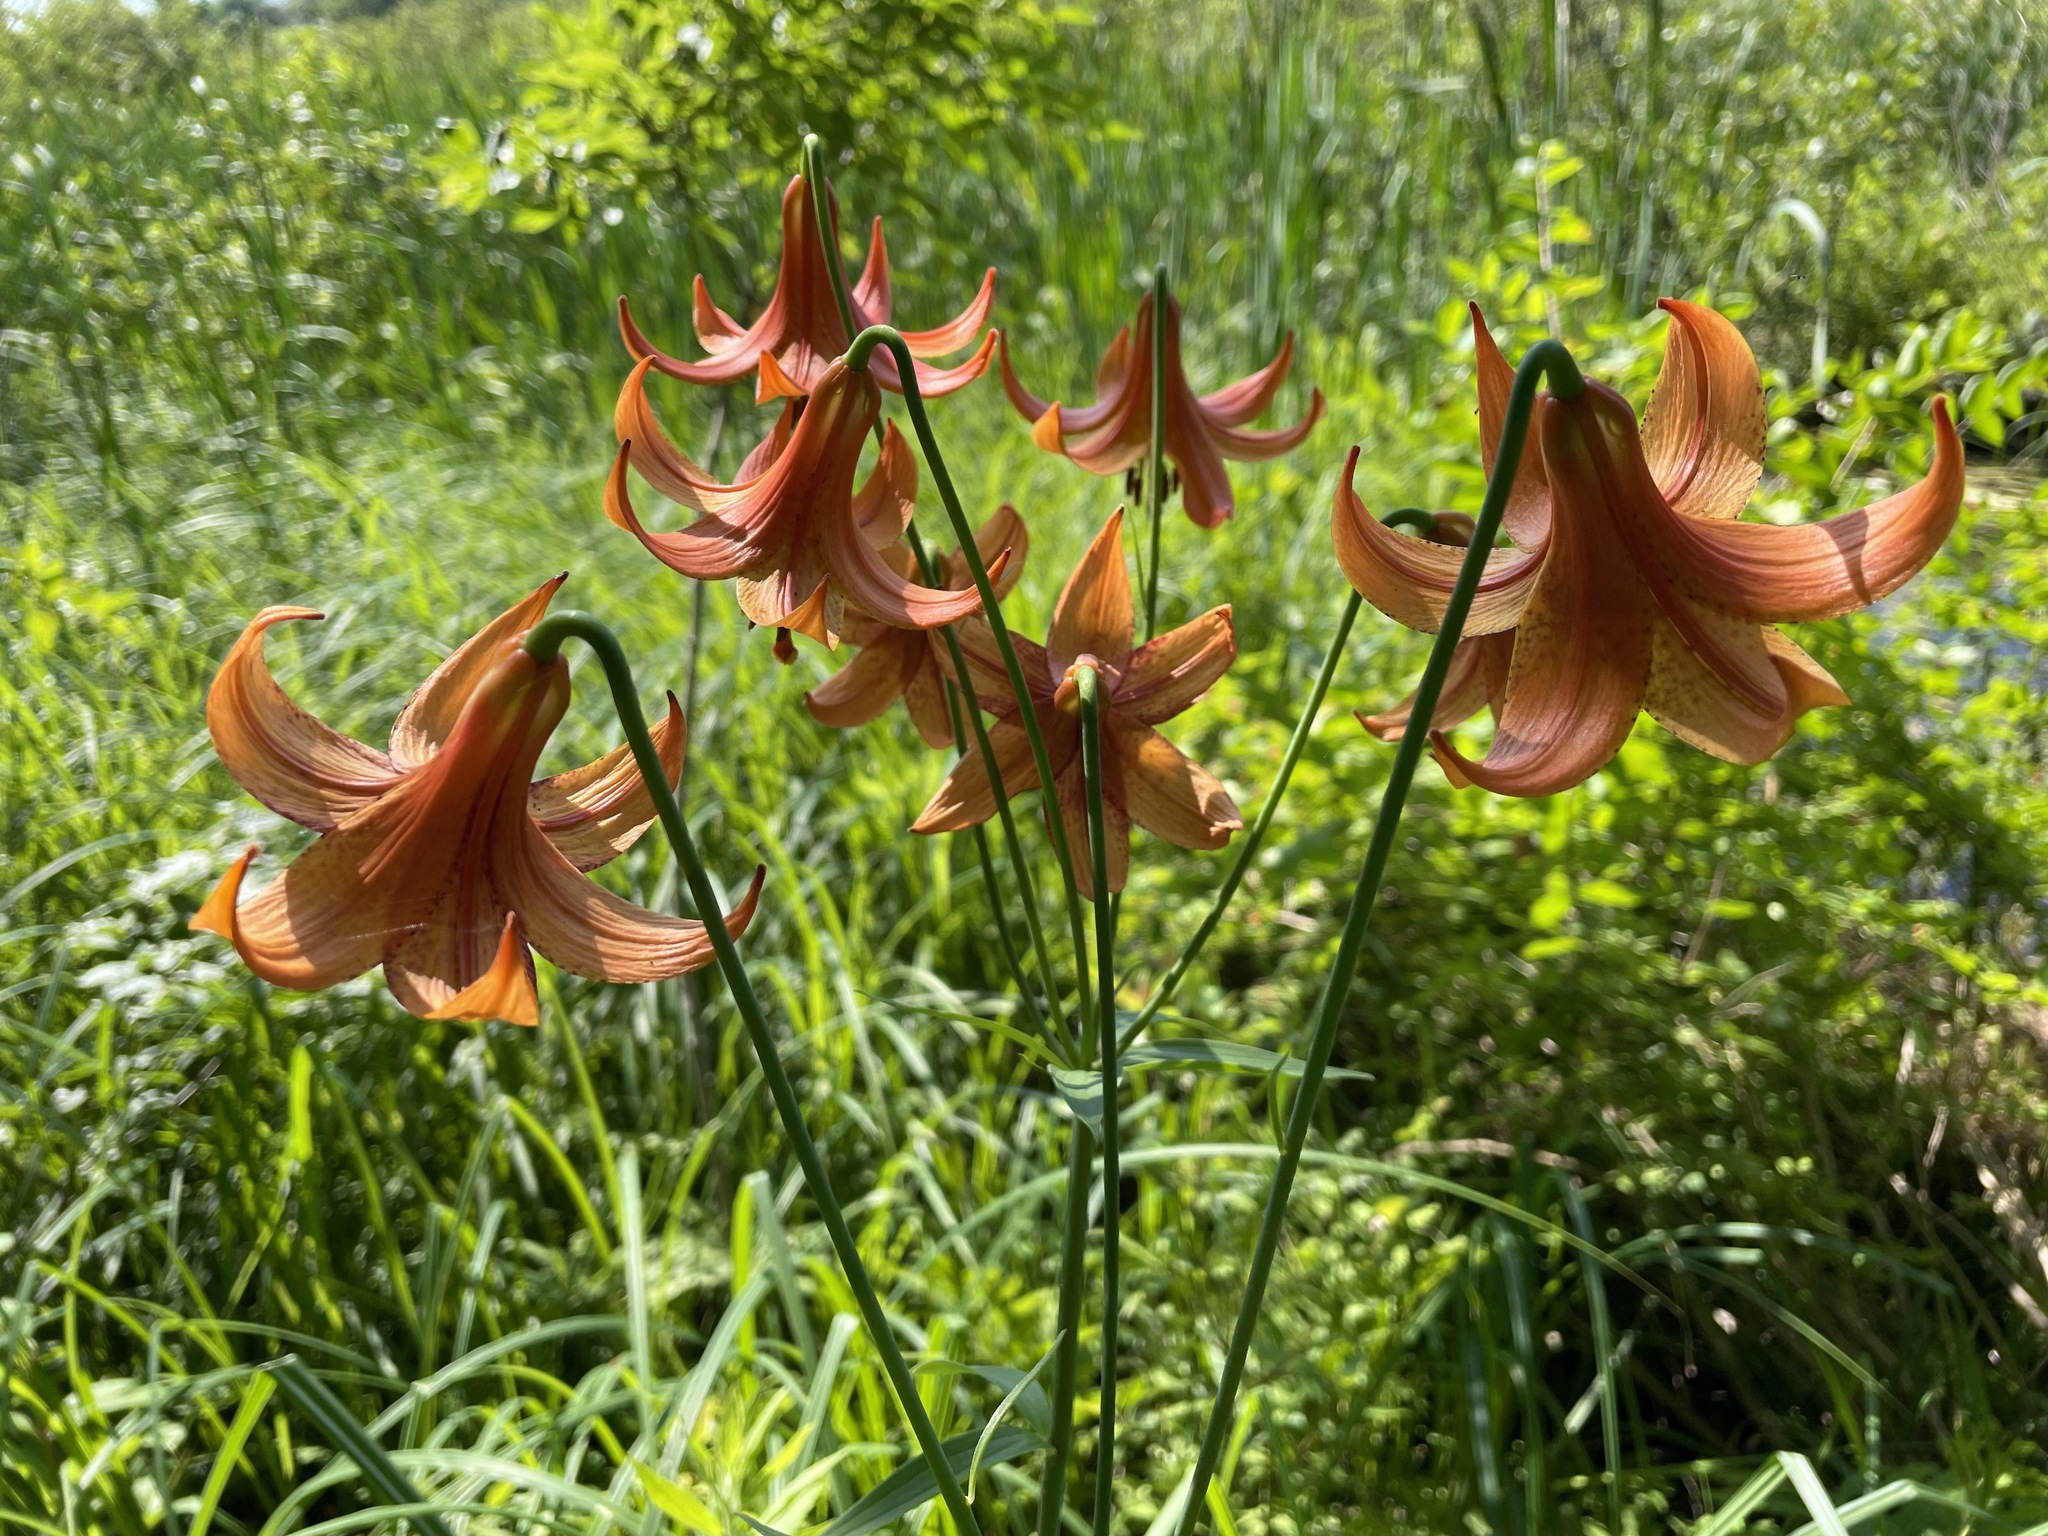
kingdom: Plantae
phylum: Tracheophyta
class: Liliopsida
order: Liliales
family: Liliaceae
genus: Lilium
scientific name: Lilium canadense
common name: Canada lily
